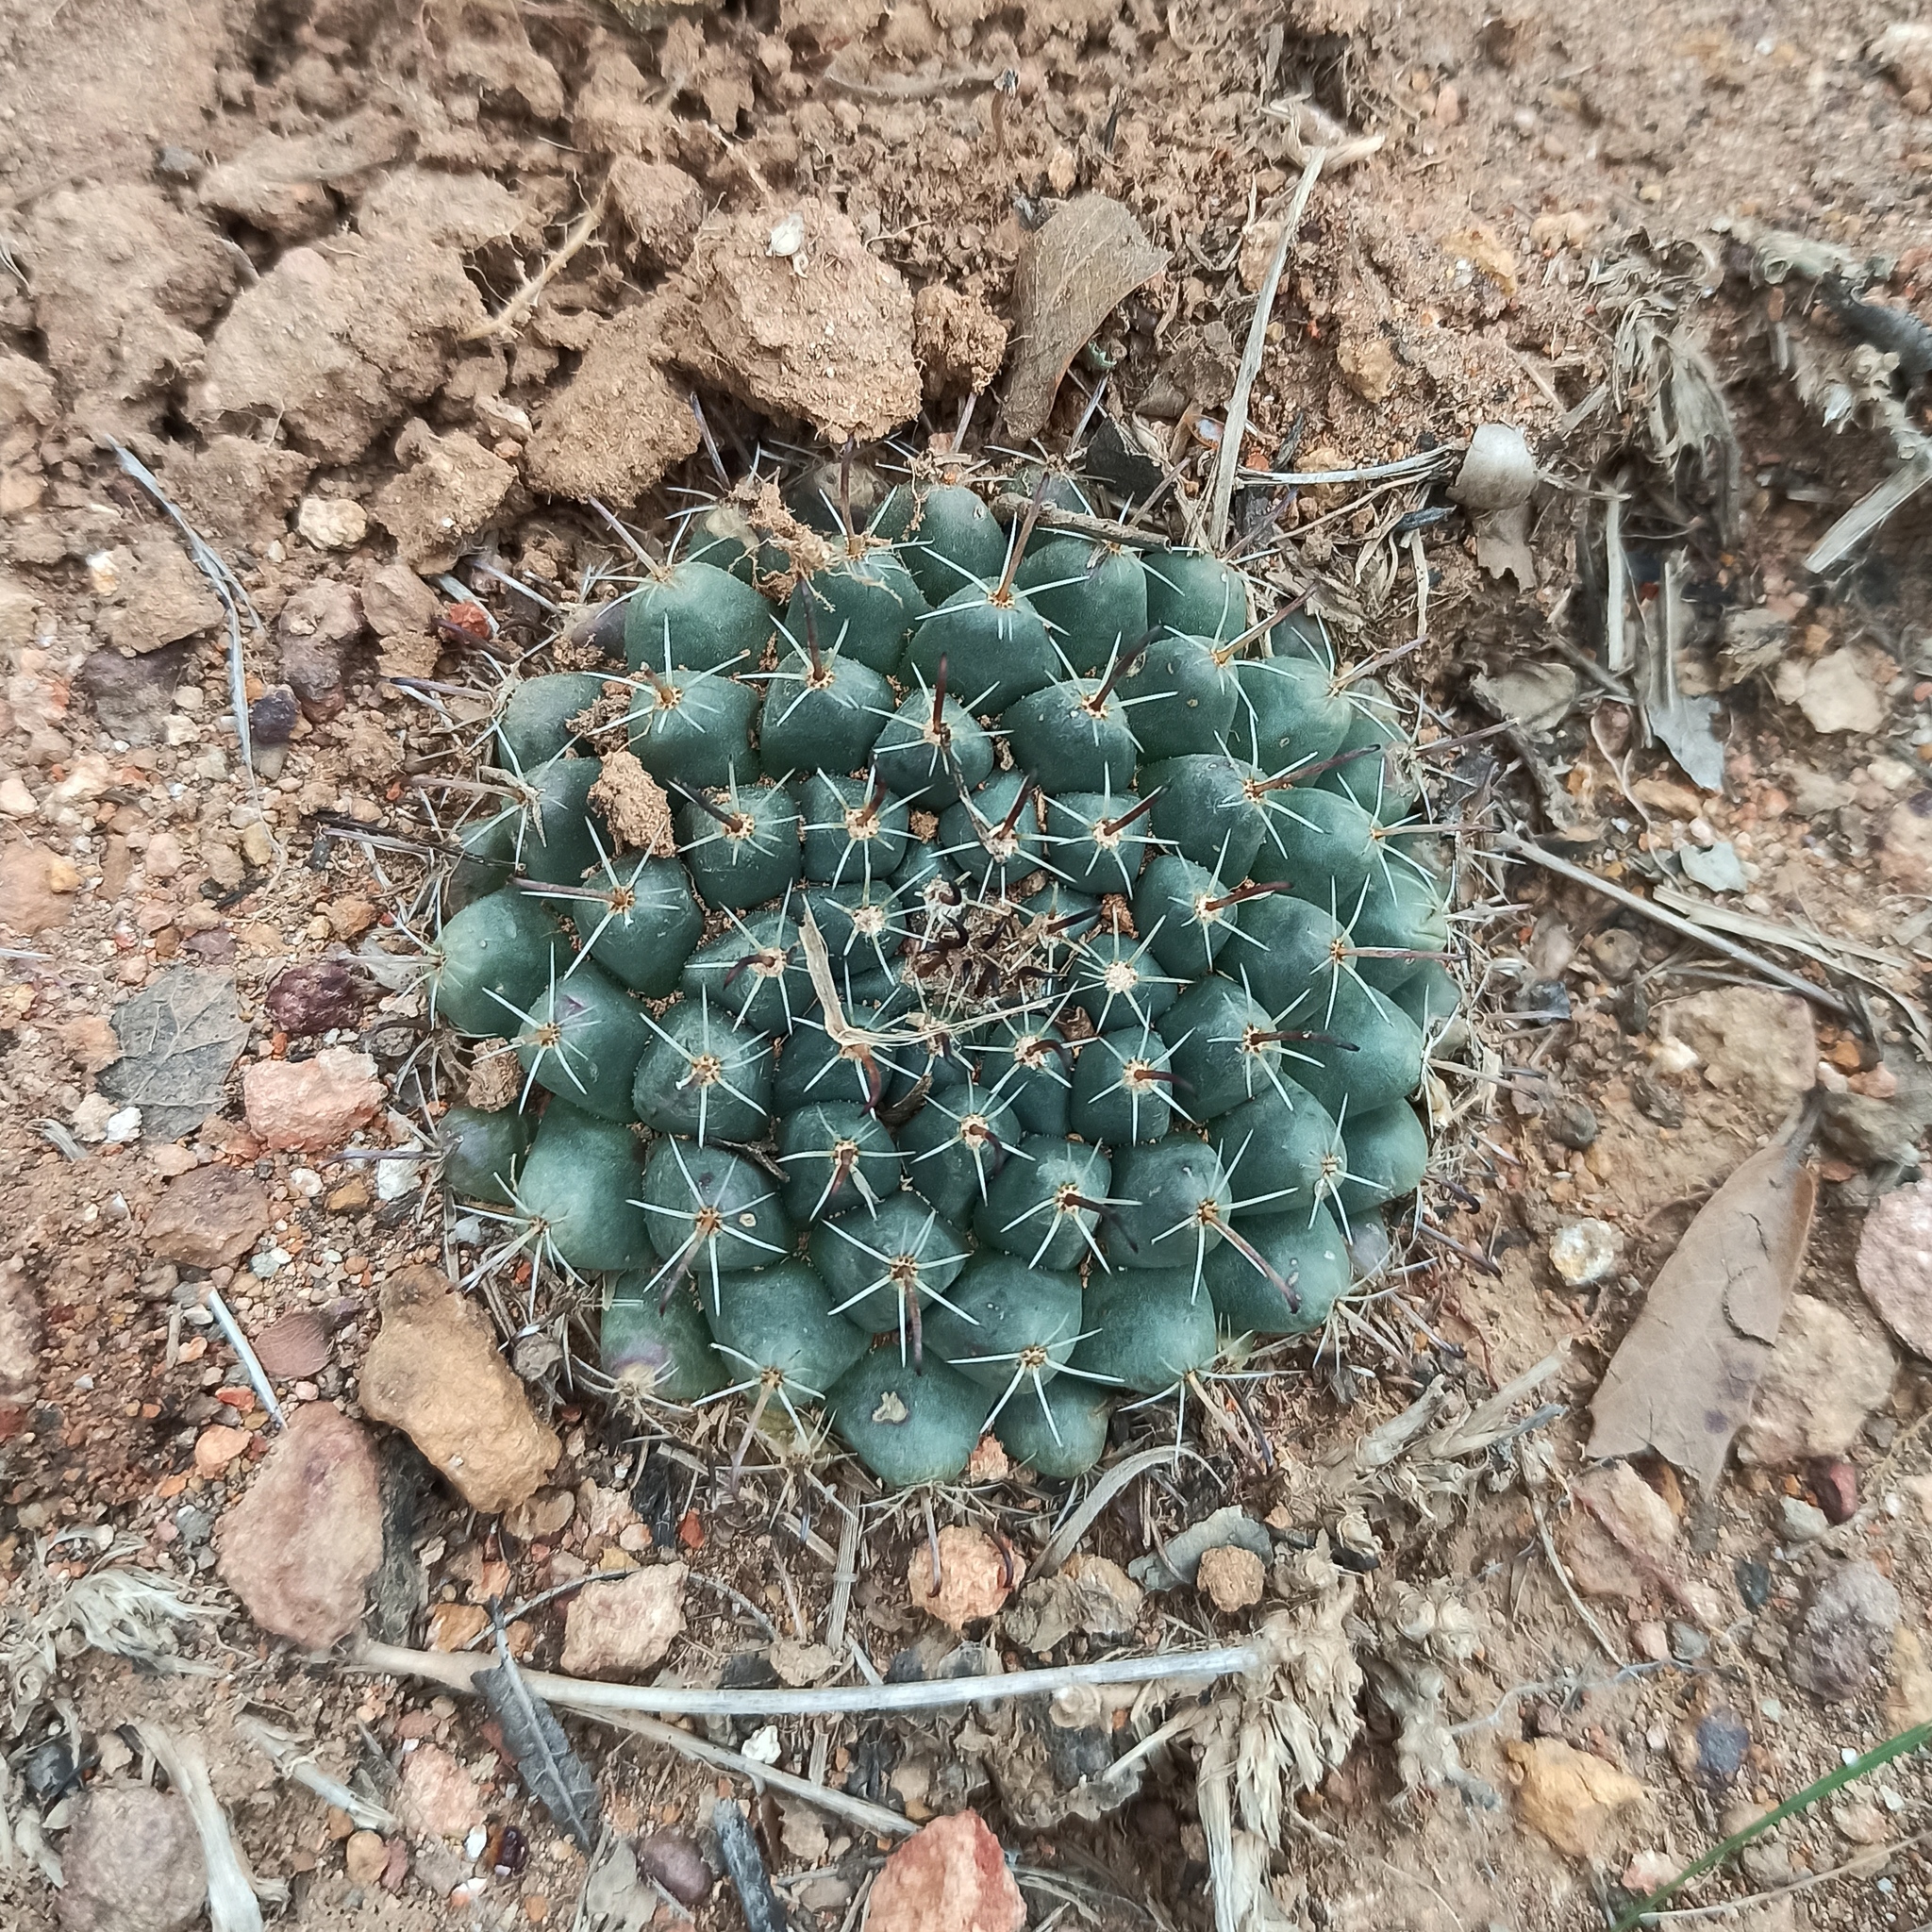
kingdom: Plantae
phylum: Tracheophyta
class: Magnoliopsida
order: Caryophyllales
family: Cactaceae
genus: Mammillaria
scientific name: Mammillaria uncinata
